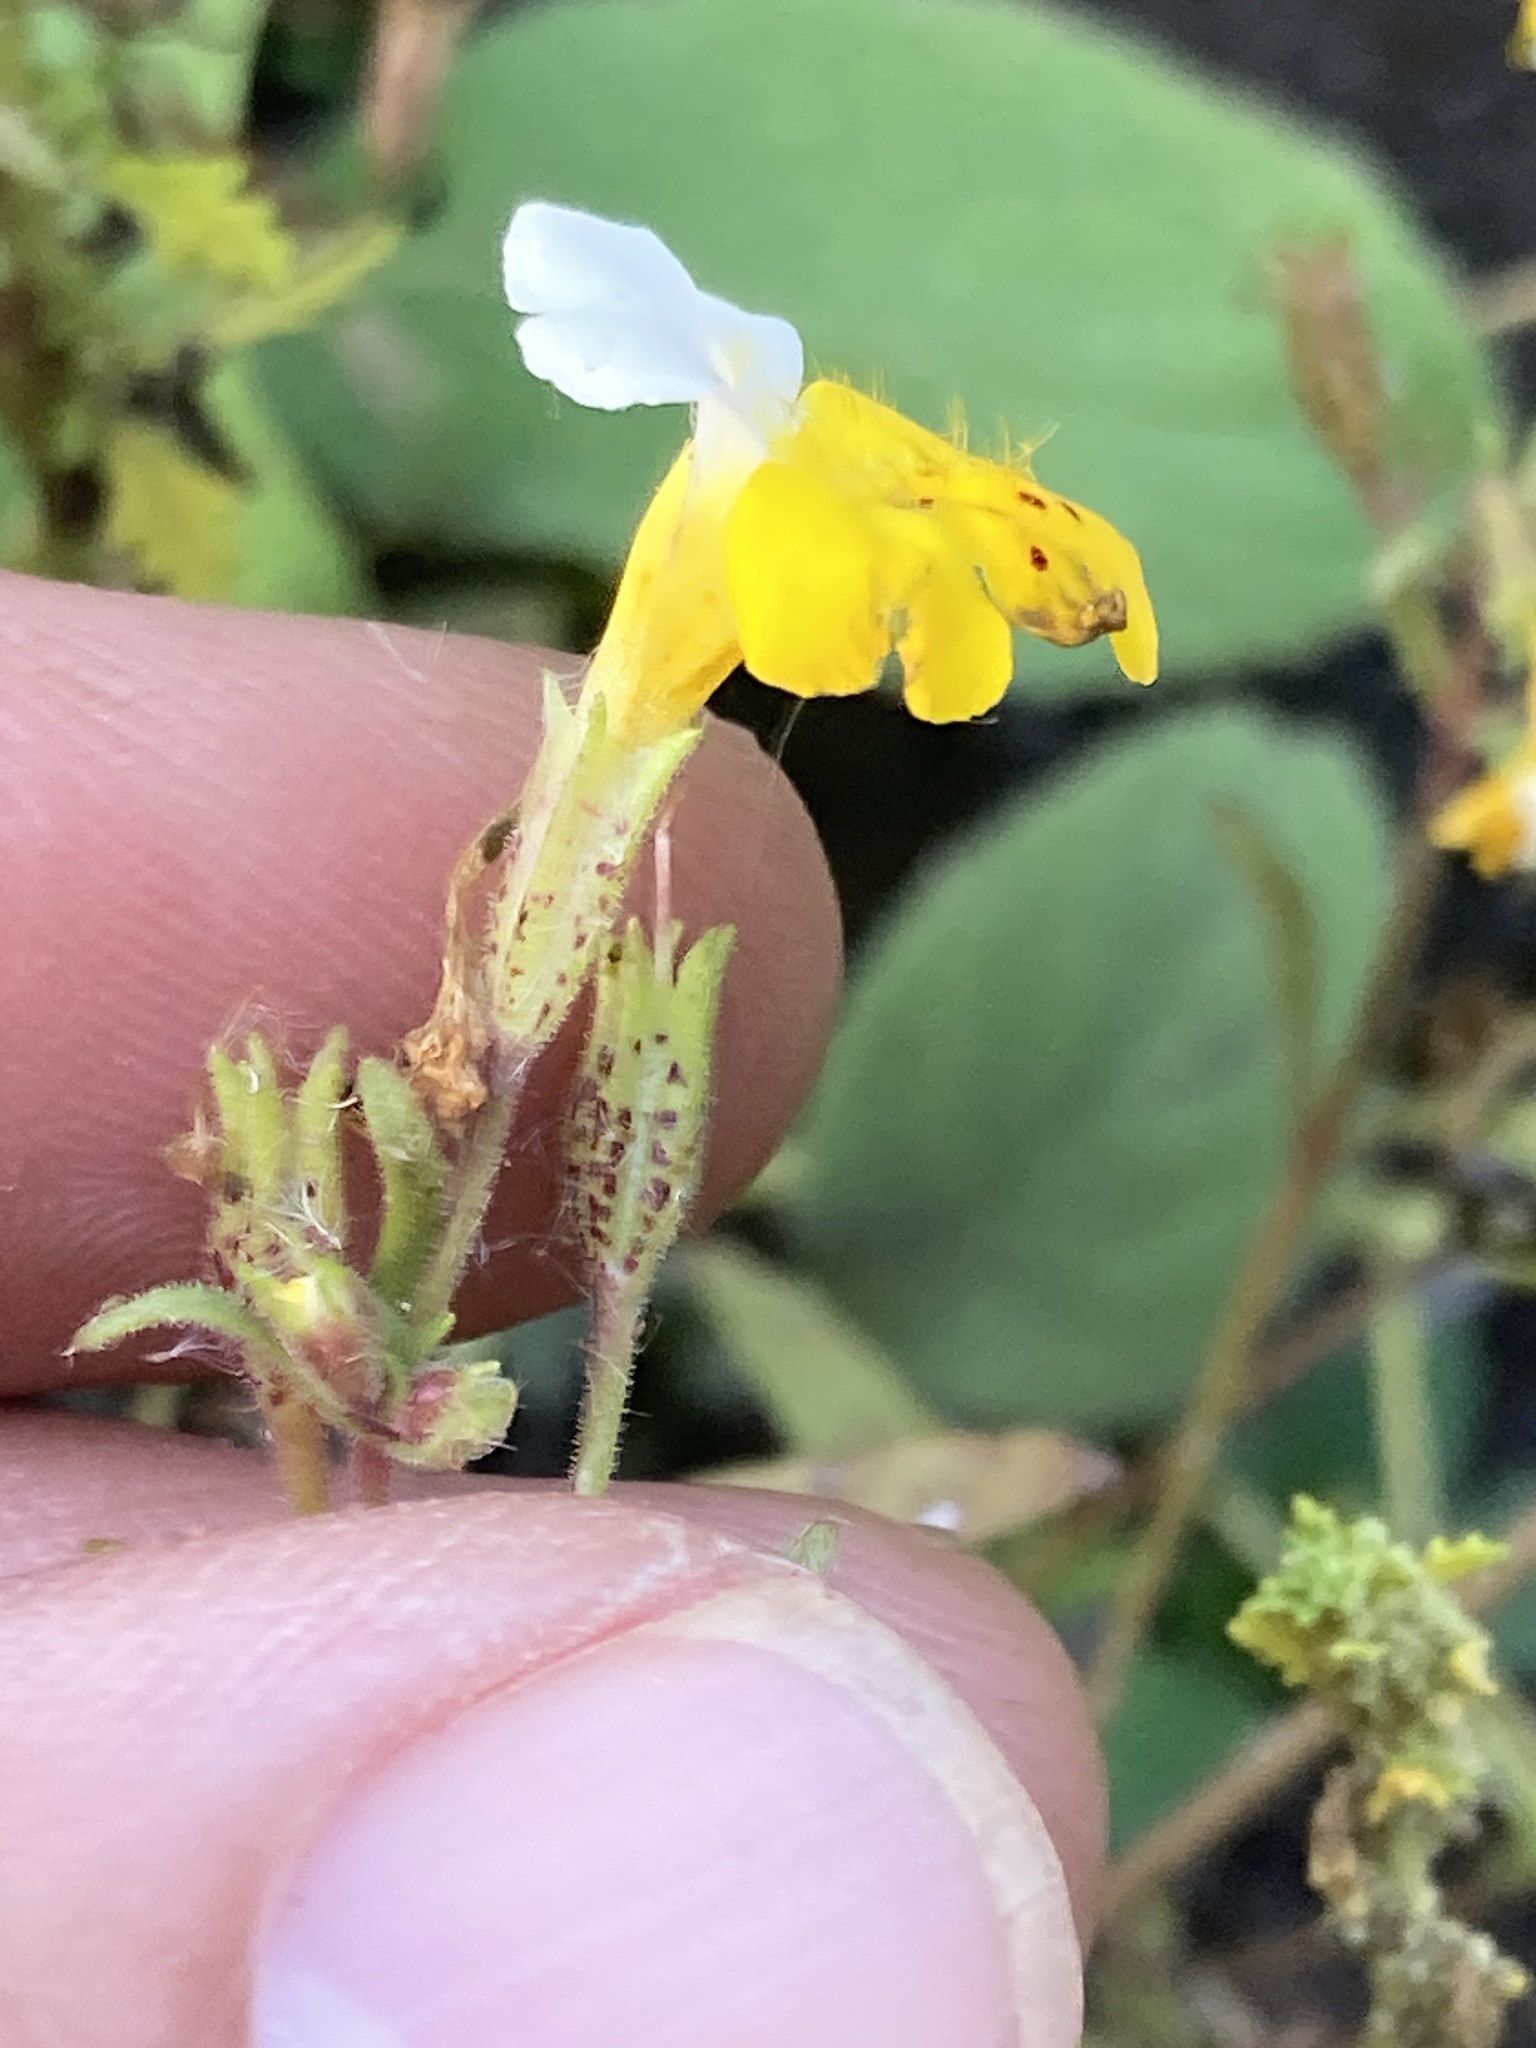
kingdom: Plantae
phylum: Tracheophyta
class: Magnoliopsida
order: Lamiales
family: Phrymaceae
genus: Erythranthe
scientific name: Erythranthe bicolor
